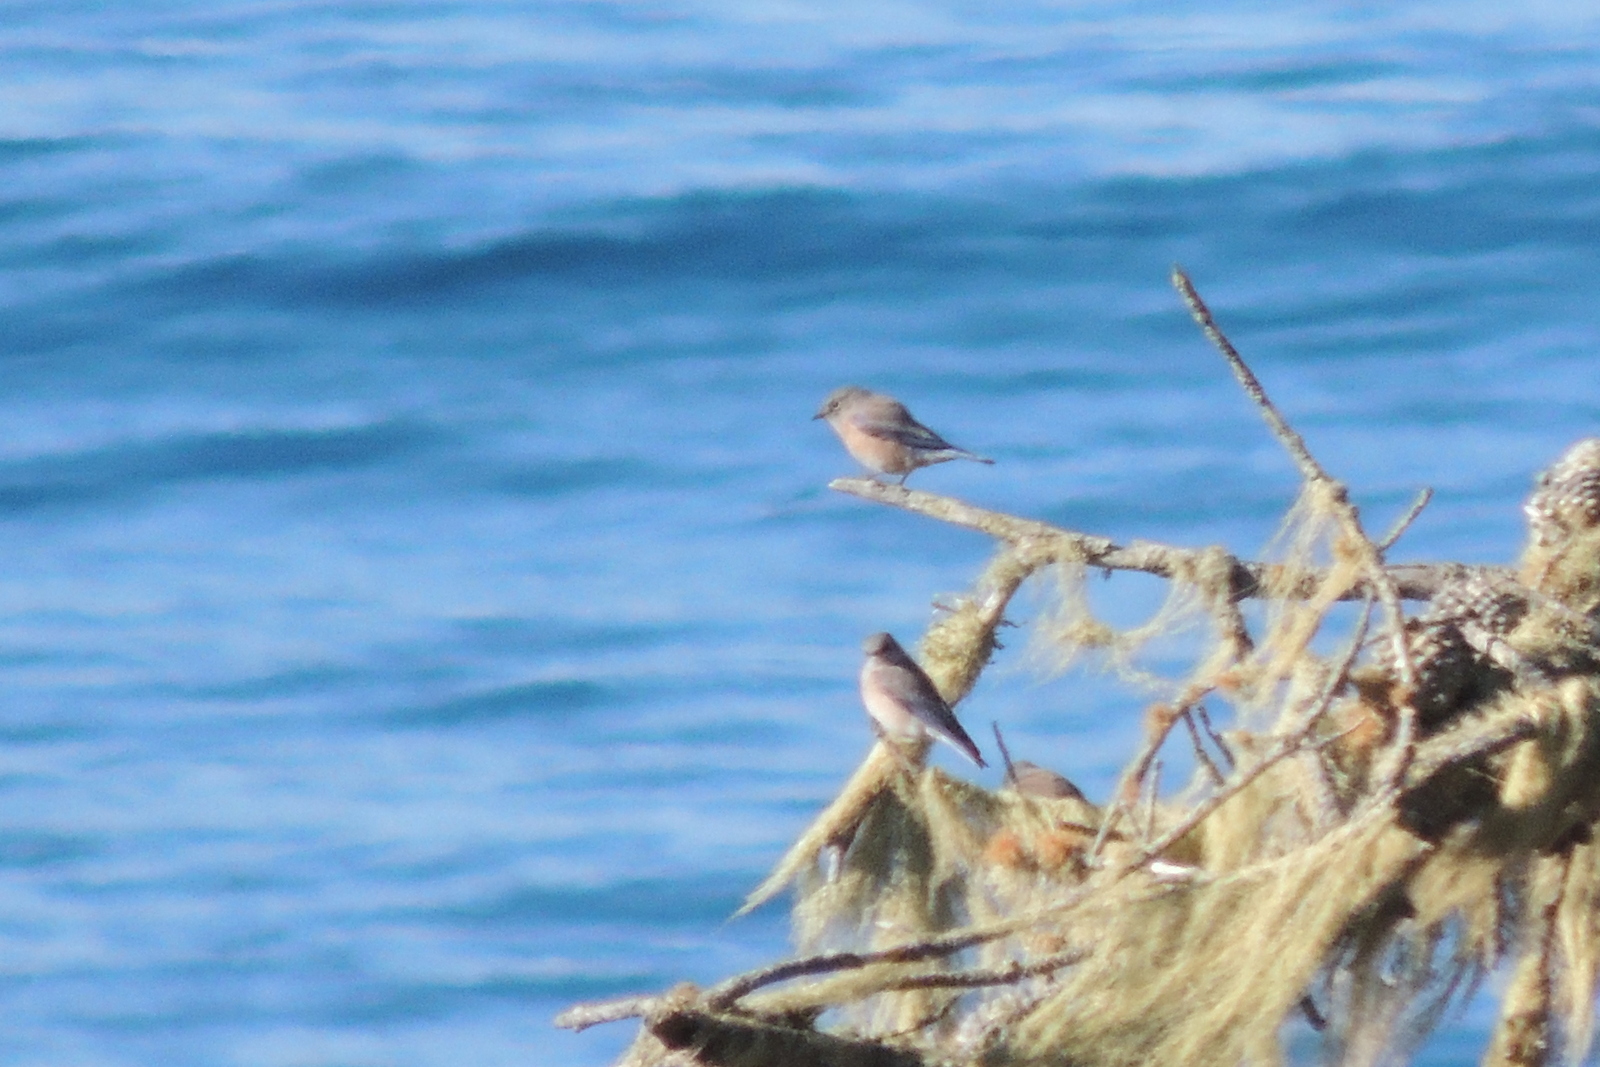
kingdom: Animalia
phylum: Chordata
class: Aves
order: Passeriformes
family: Turdidae
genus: Sialia
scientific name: Sialia mexicana
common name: Western bluebird
